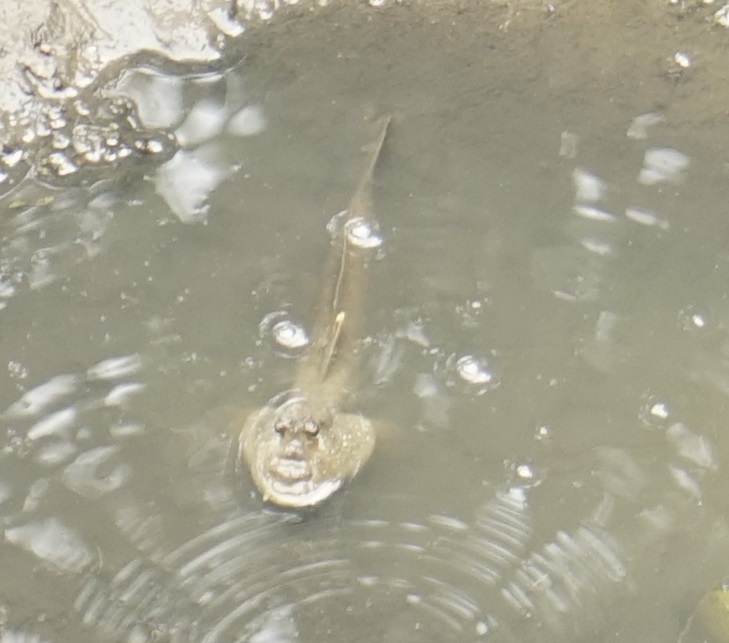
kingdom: Animalia
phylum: Chordata
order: Perciformes
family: Gobiidae
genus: Periophthalmodon
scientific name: Periophthalmodon schlosseri
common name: Giant mudskipper
